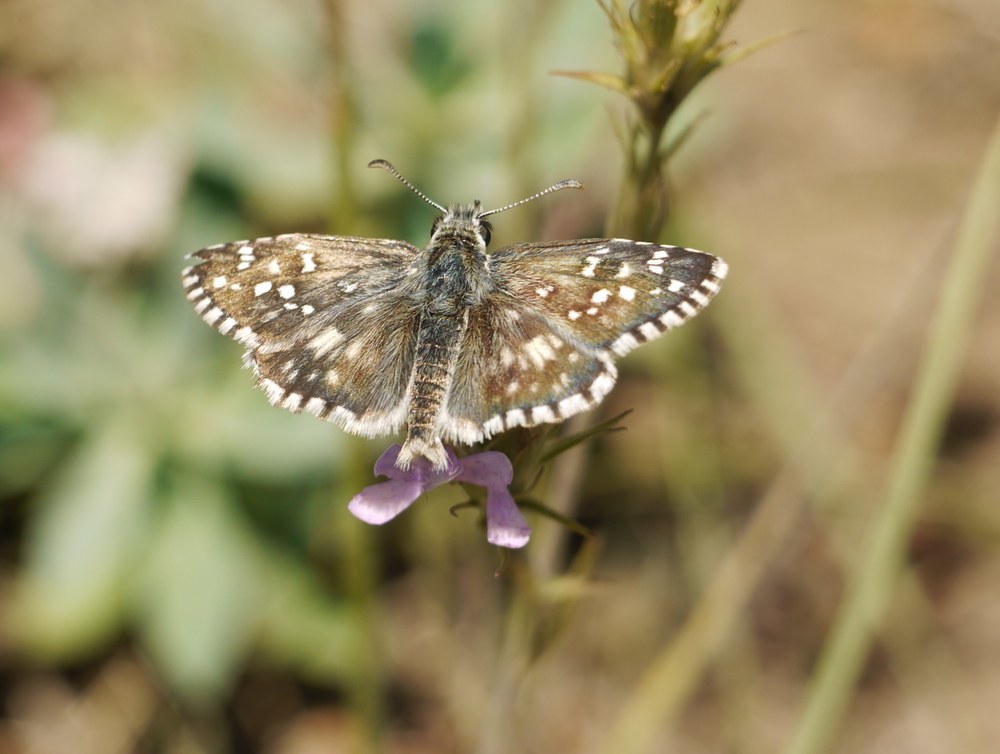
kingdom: Animalia
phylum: Arthropoda
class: Insecta
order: Lepidoptera
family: Hesperiidae
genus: Pyrgus
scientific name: Pyrgus armoricanus
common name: Oberthür's grizzled skipper
